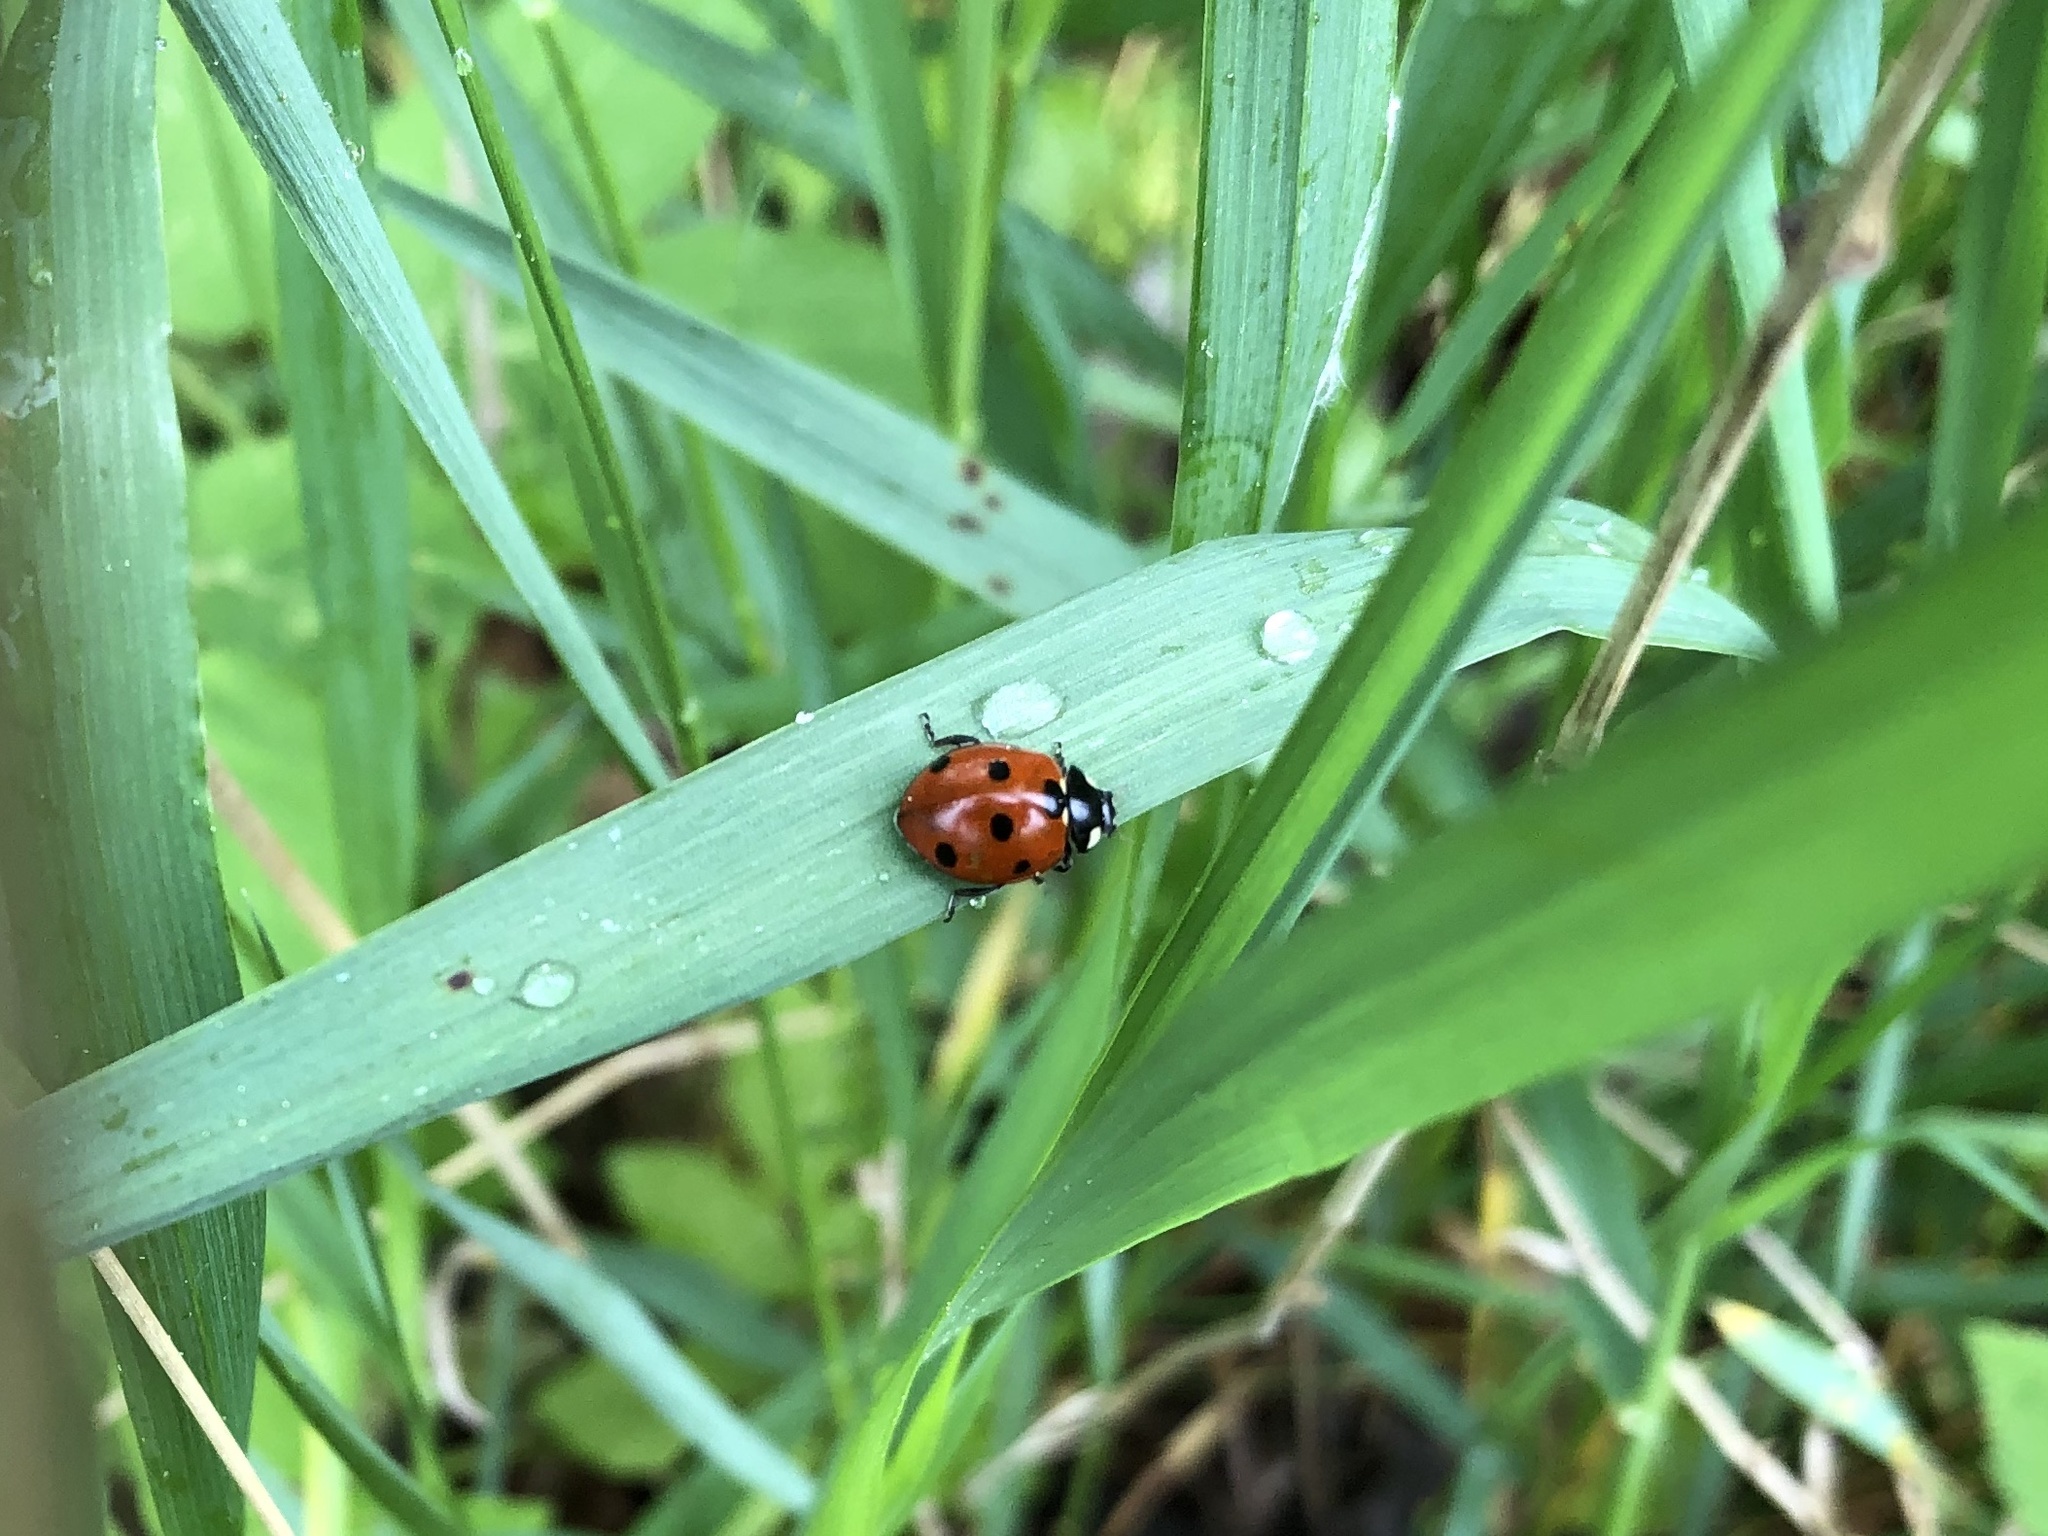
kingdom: Animalia
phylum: Arthropoda
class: Insecta
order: Coleoptera
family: Coccinellidae
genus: Coccinella
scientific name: Coccinella septempunctata
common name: Sevenspotted lady beetle
